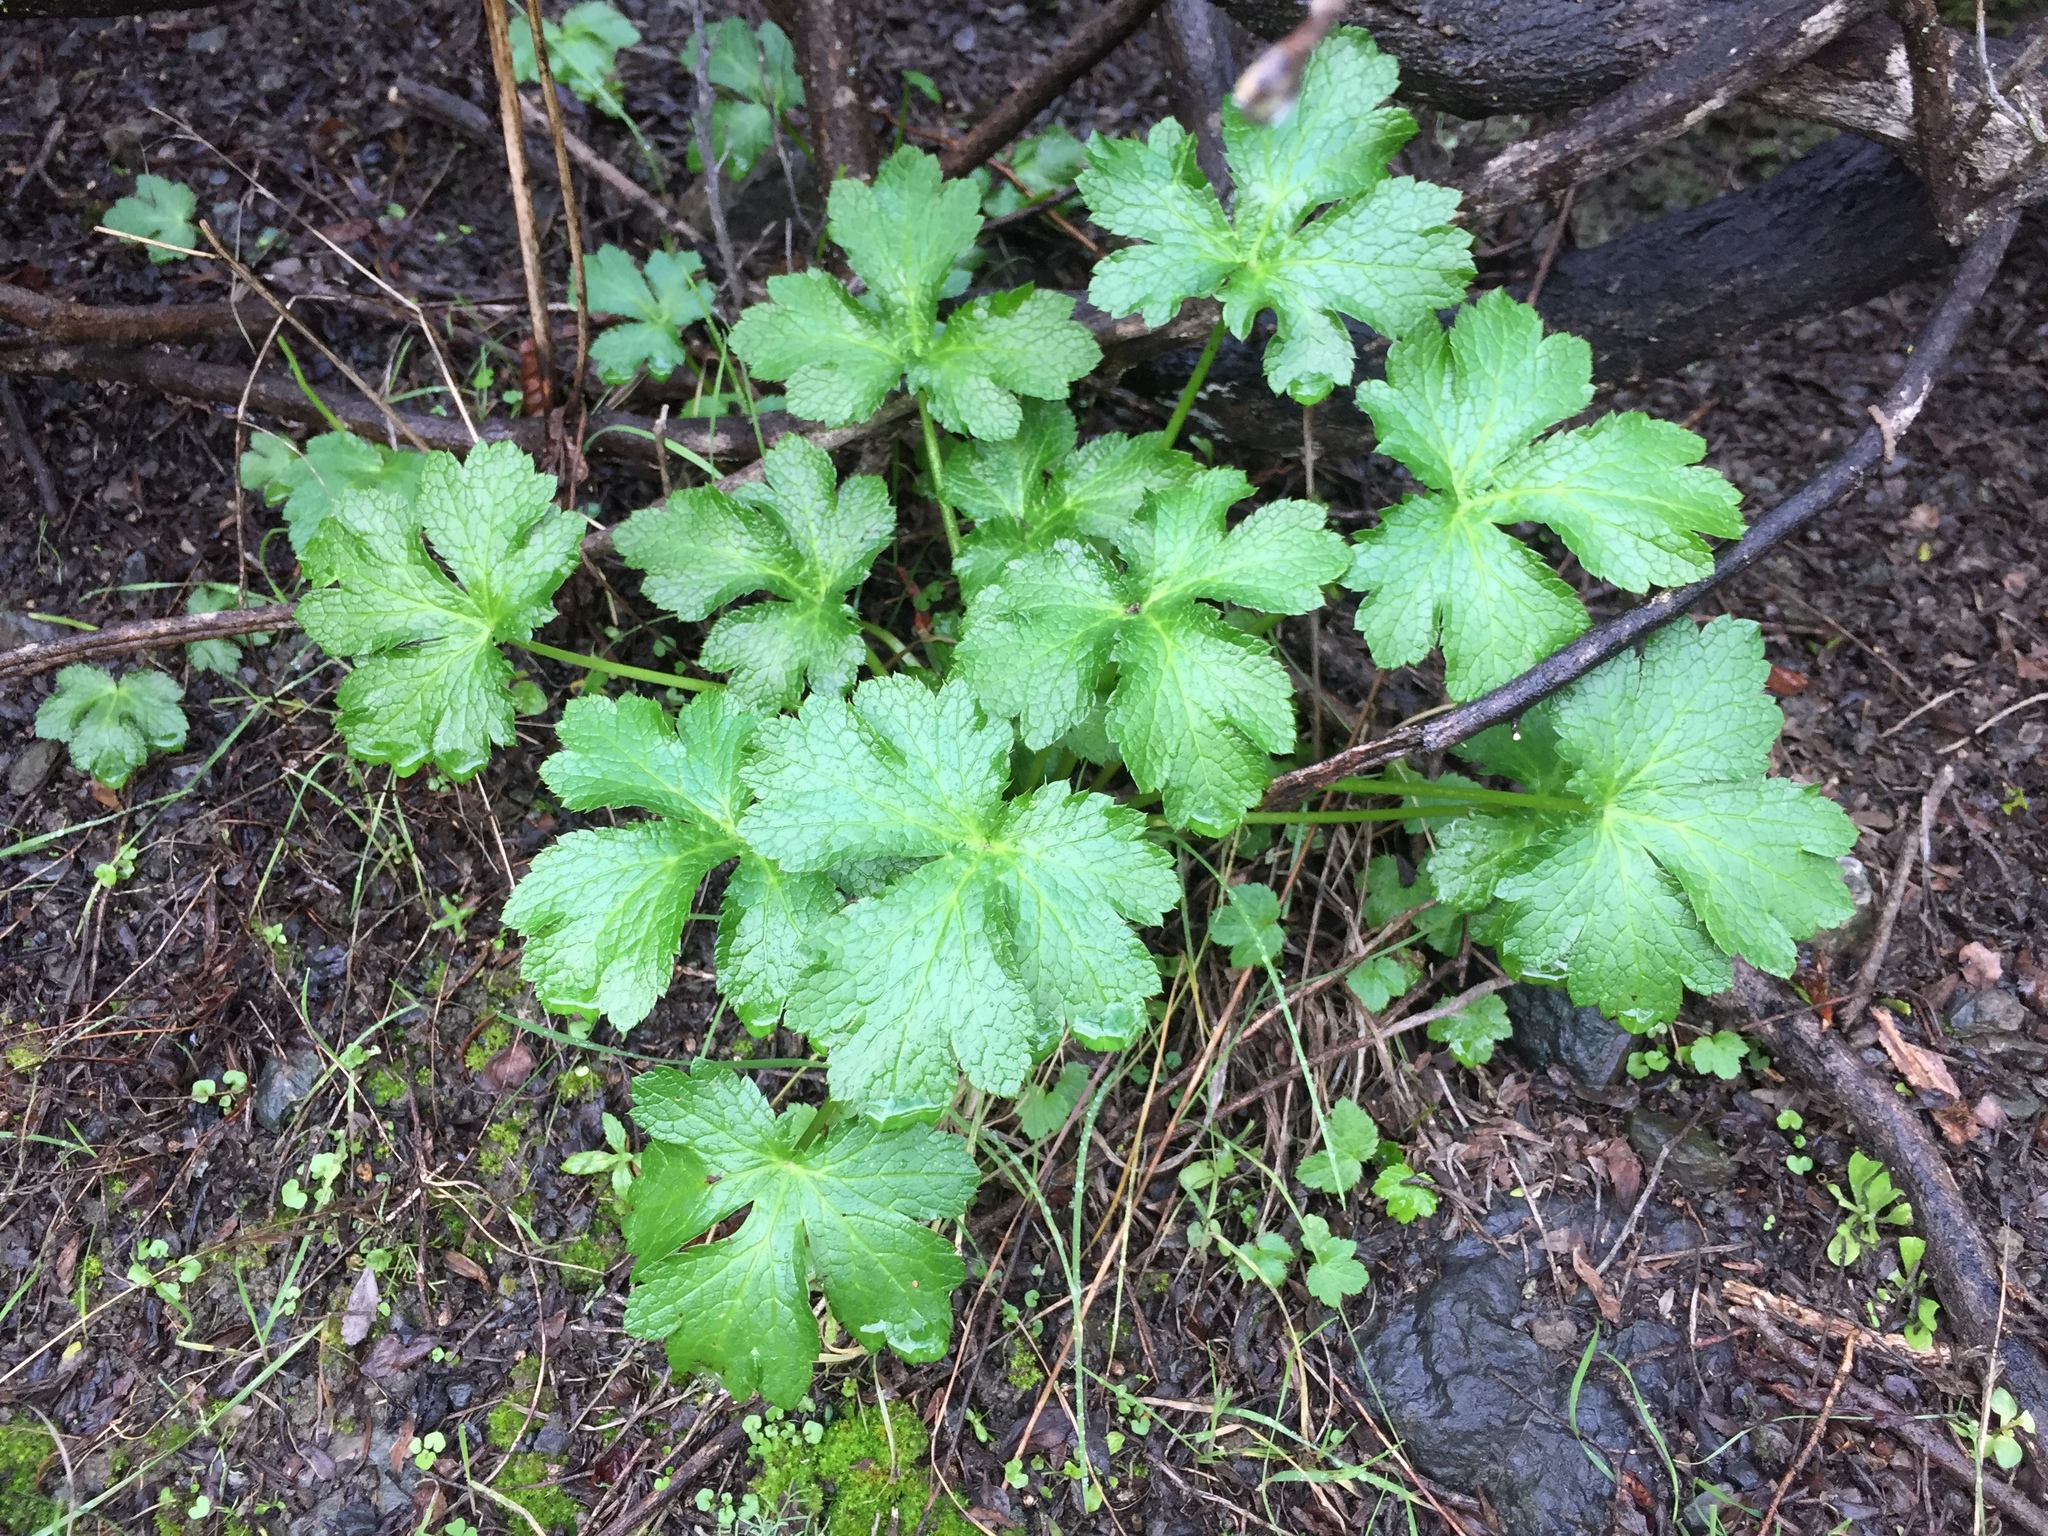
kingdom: Plantae
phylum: Tracheophyta
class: Magnoliopsida
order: Apiales
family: Apiaceae
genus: Sanicula
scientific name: Sanicula crassicaulis
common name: Western snakeroot
